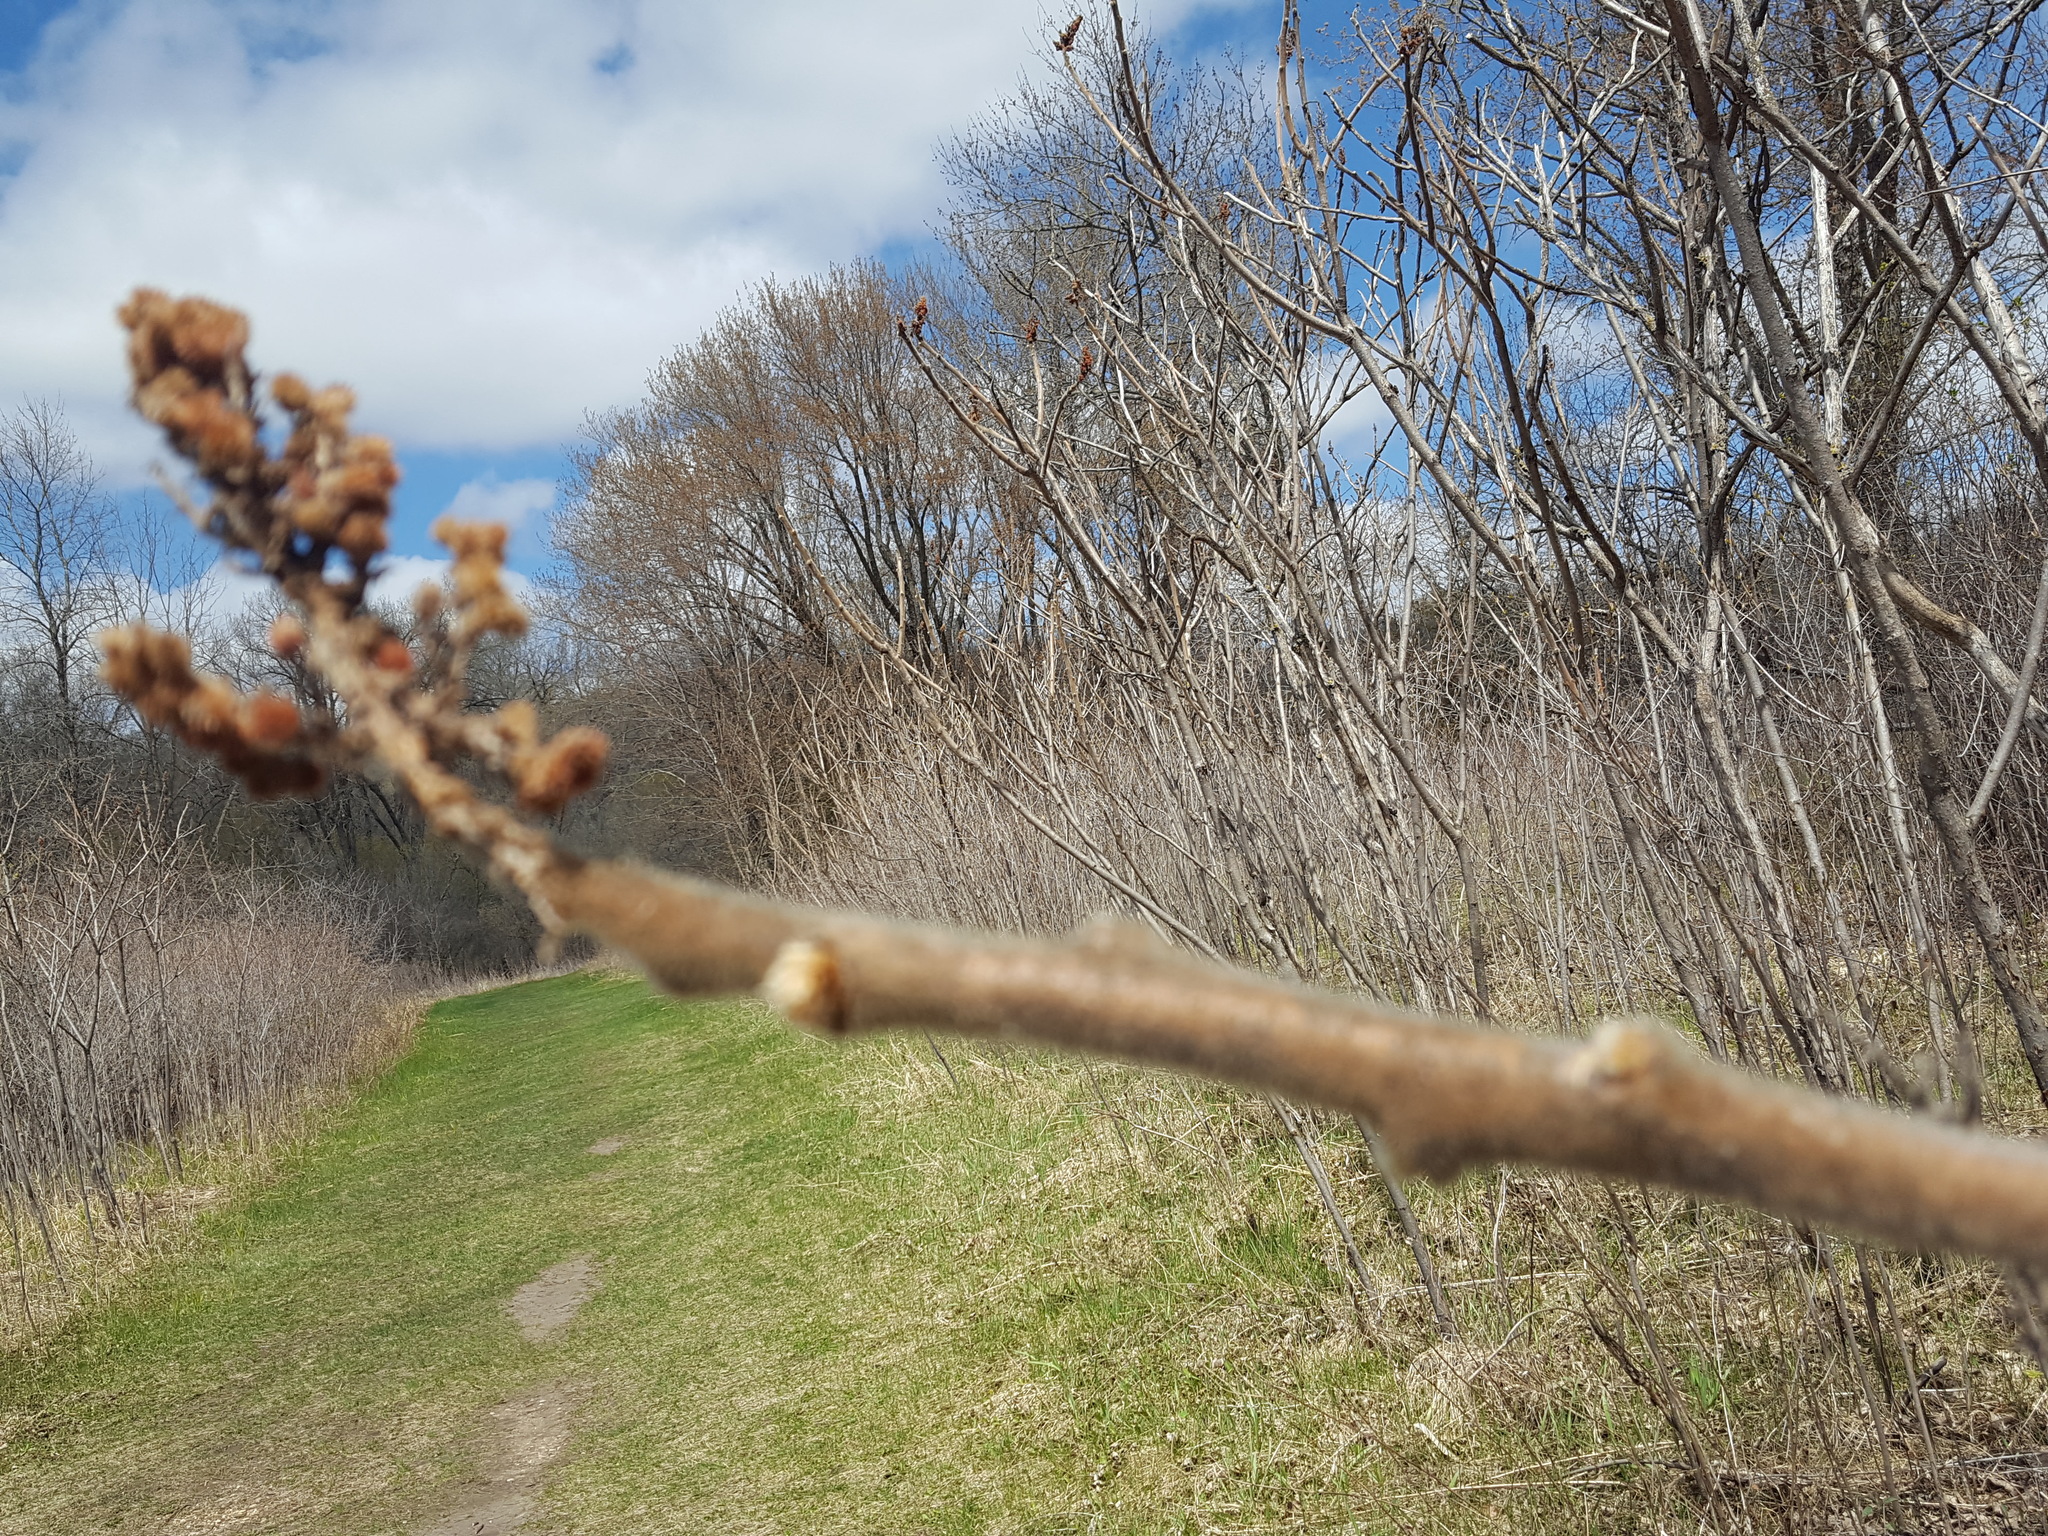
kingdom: Plantae
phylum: Tracheophyta
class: Magnoliopsida
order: Sapindales
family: Anacardiaceae
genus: Rhus
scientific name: Rhus typhina
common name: Staghorn sumac
